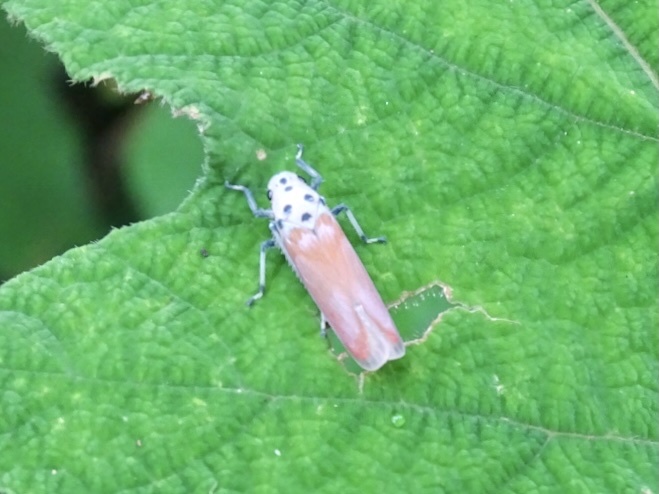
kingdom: Animalia
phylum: Arthropoda
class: Insecta
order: Hemiptera
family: Cicadellidae
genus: Bothrogonia
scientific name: Bothrogonia ferruginea
